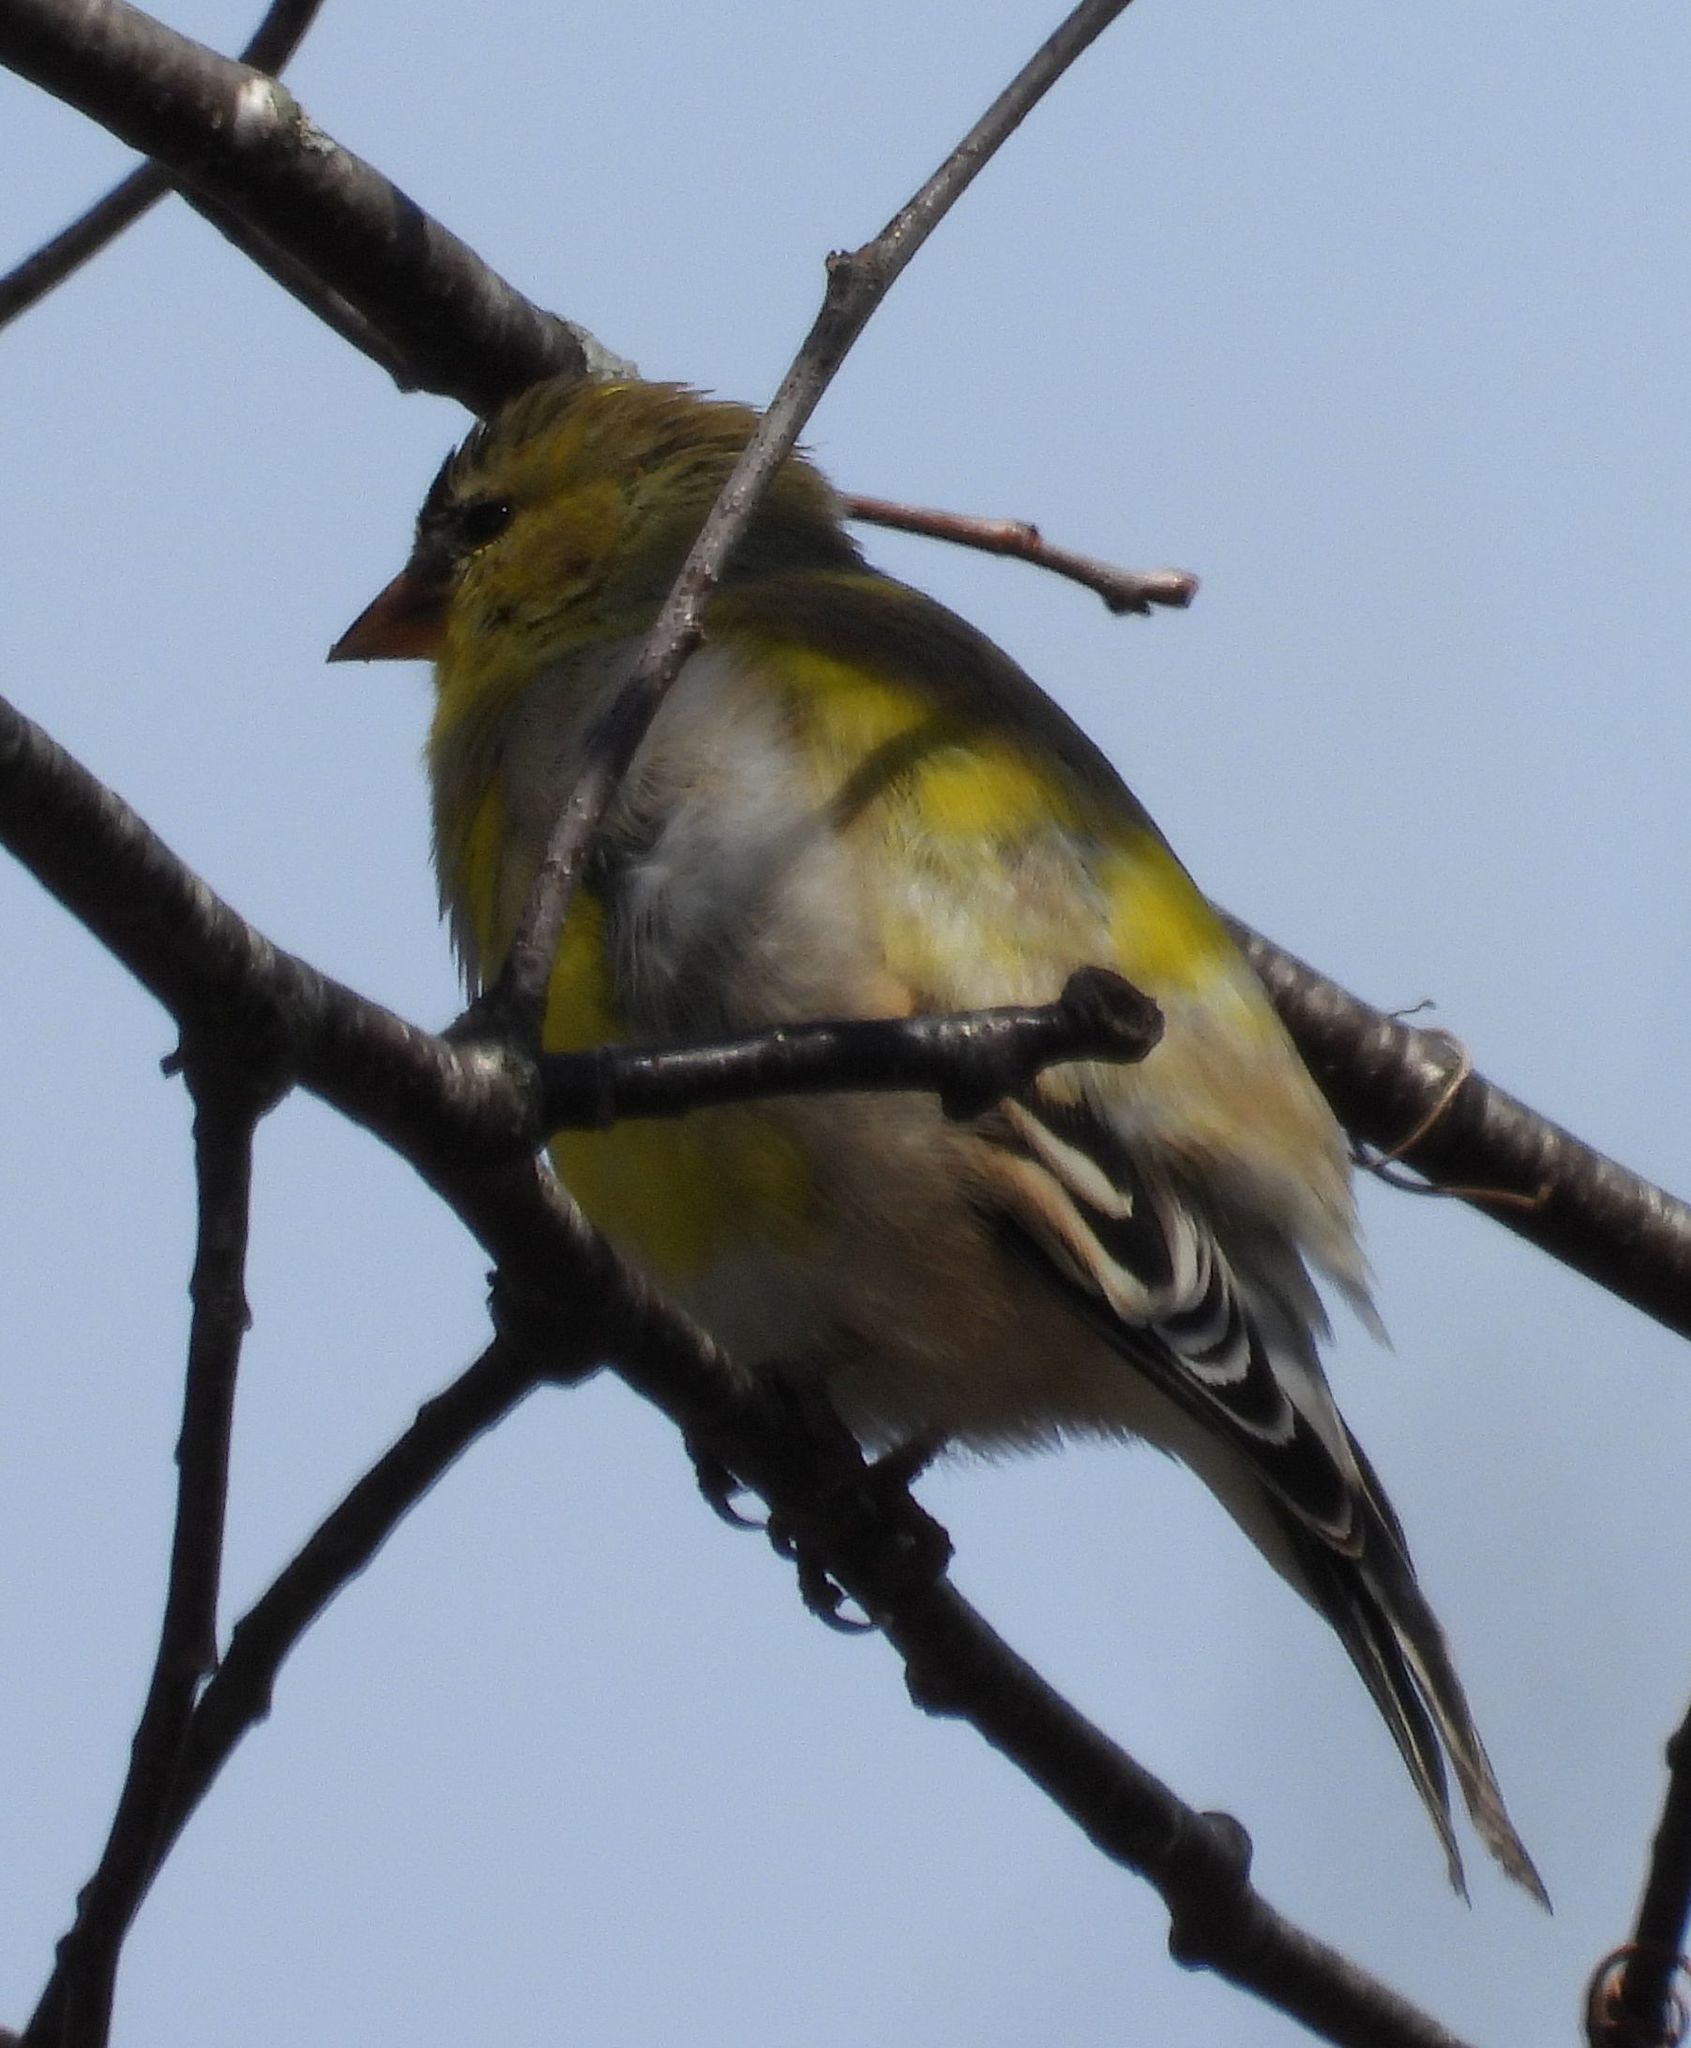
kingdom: Animalia
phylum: Chordata
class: Aves
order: Passeriformes
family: Fringillidae
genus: Spinus
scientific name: Spinus tristis
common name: American goldfinch
